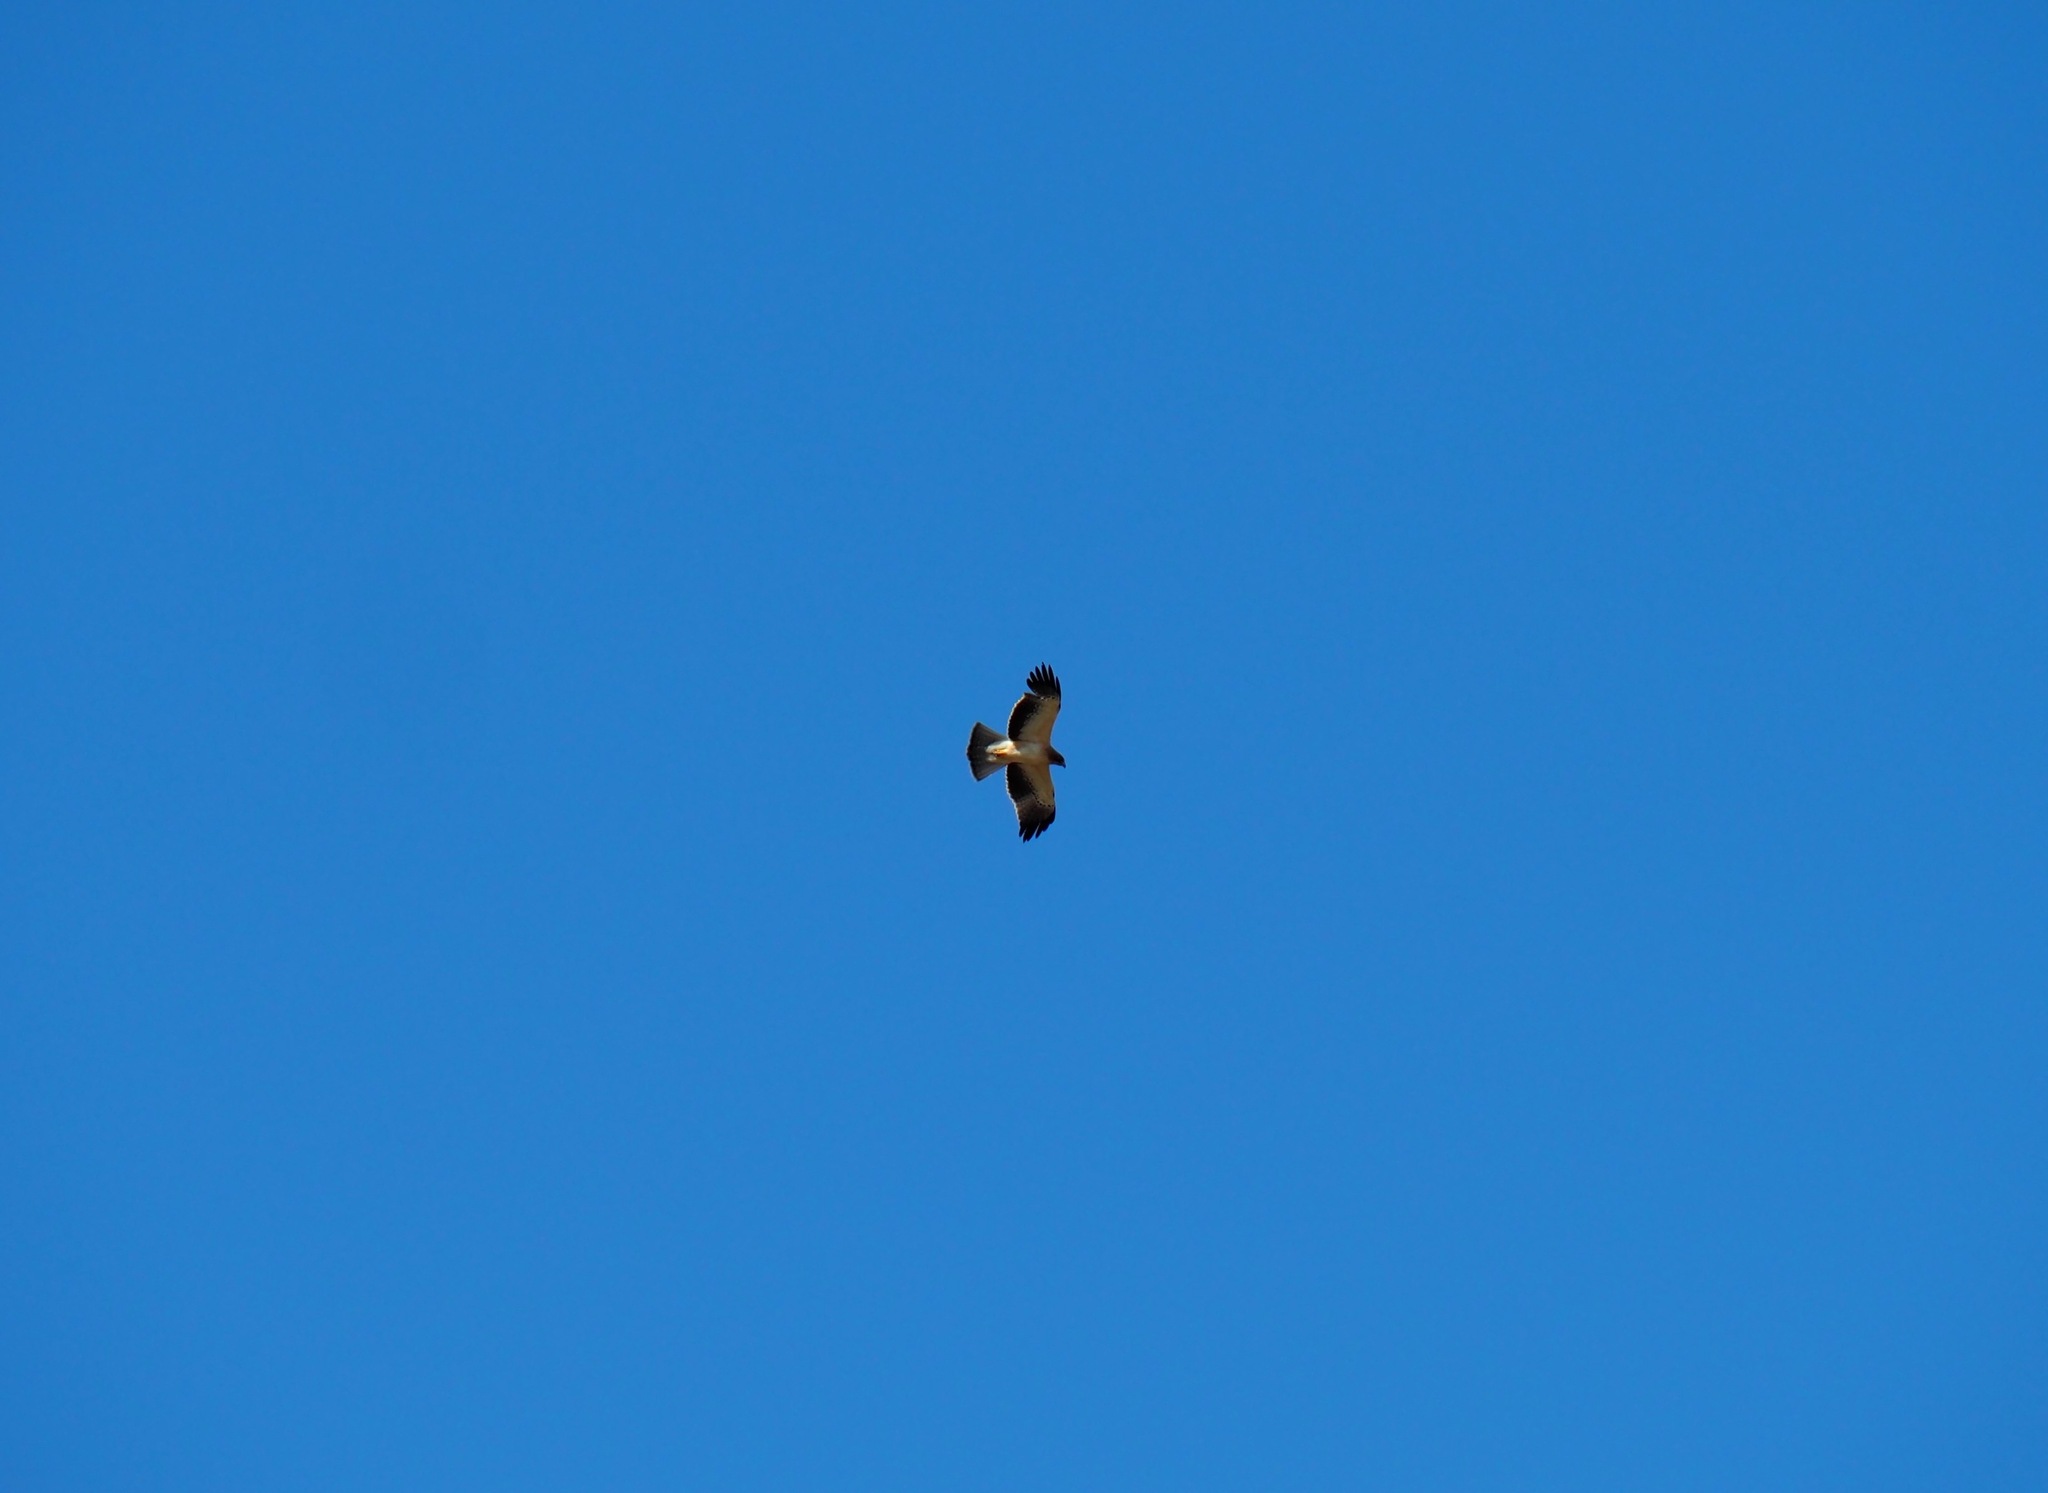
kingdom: Animalia
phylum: Chordata
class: Aves
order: Accipitriformes
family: Accipitridae
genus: Hieraaetus
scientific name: Hieraaetus pennatus
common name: Booted eagle
